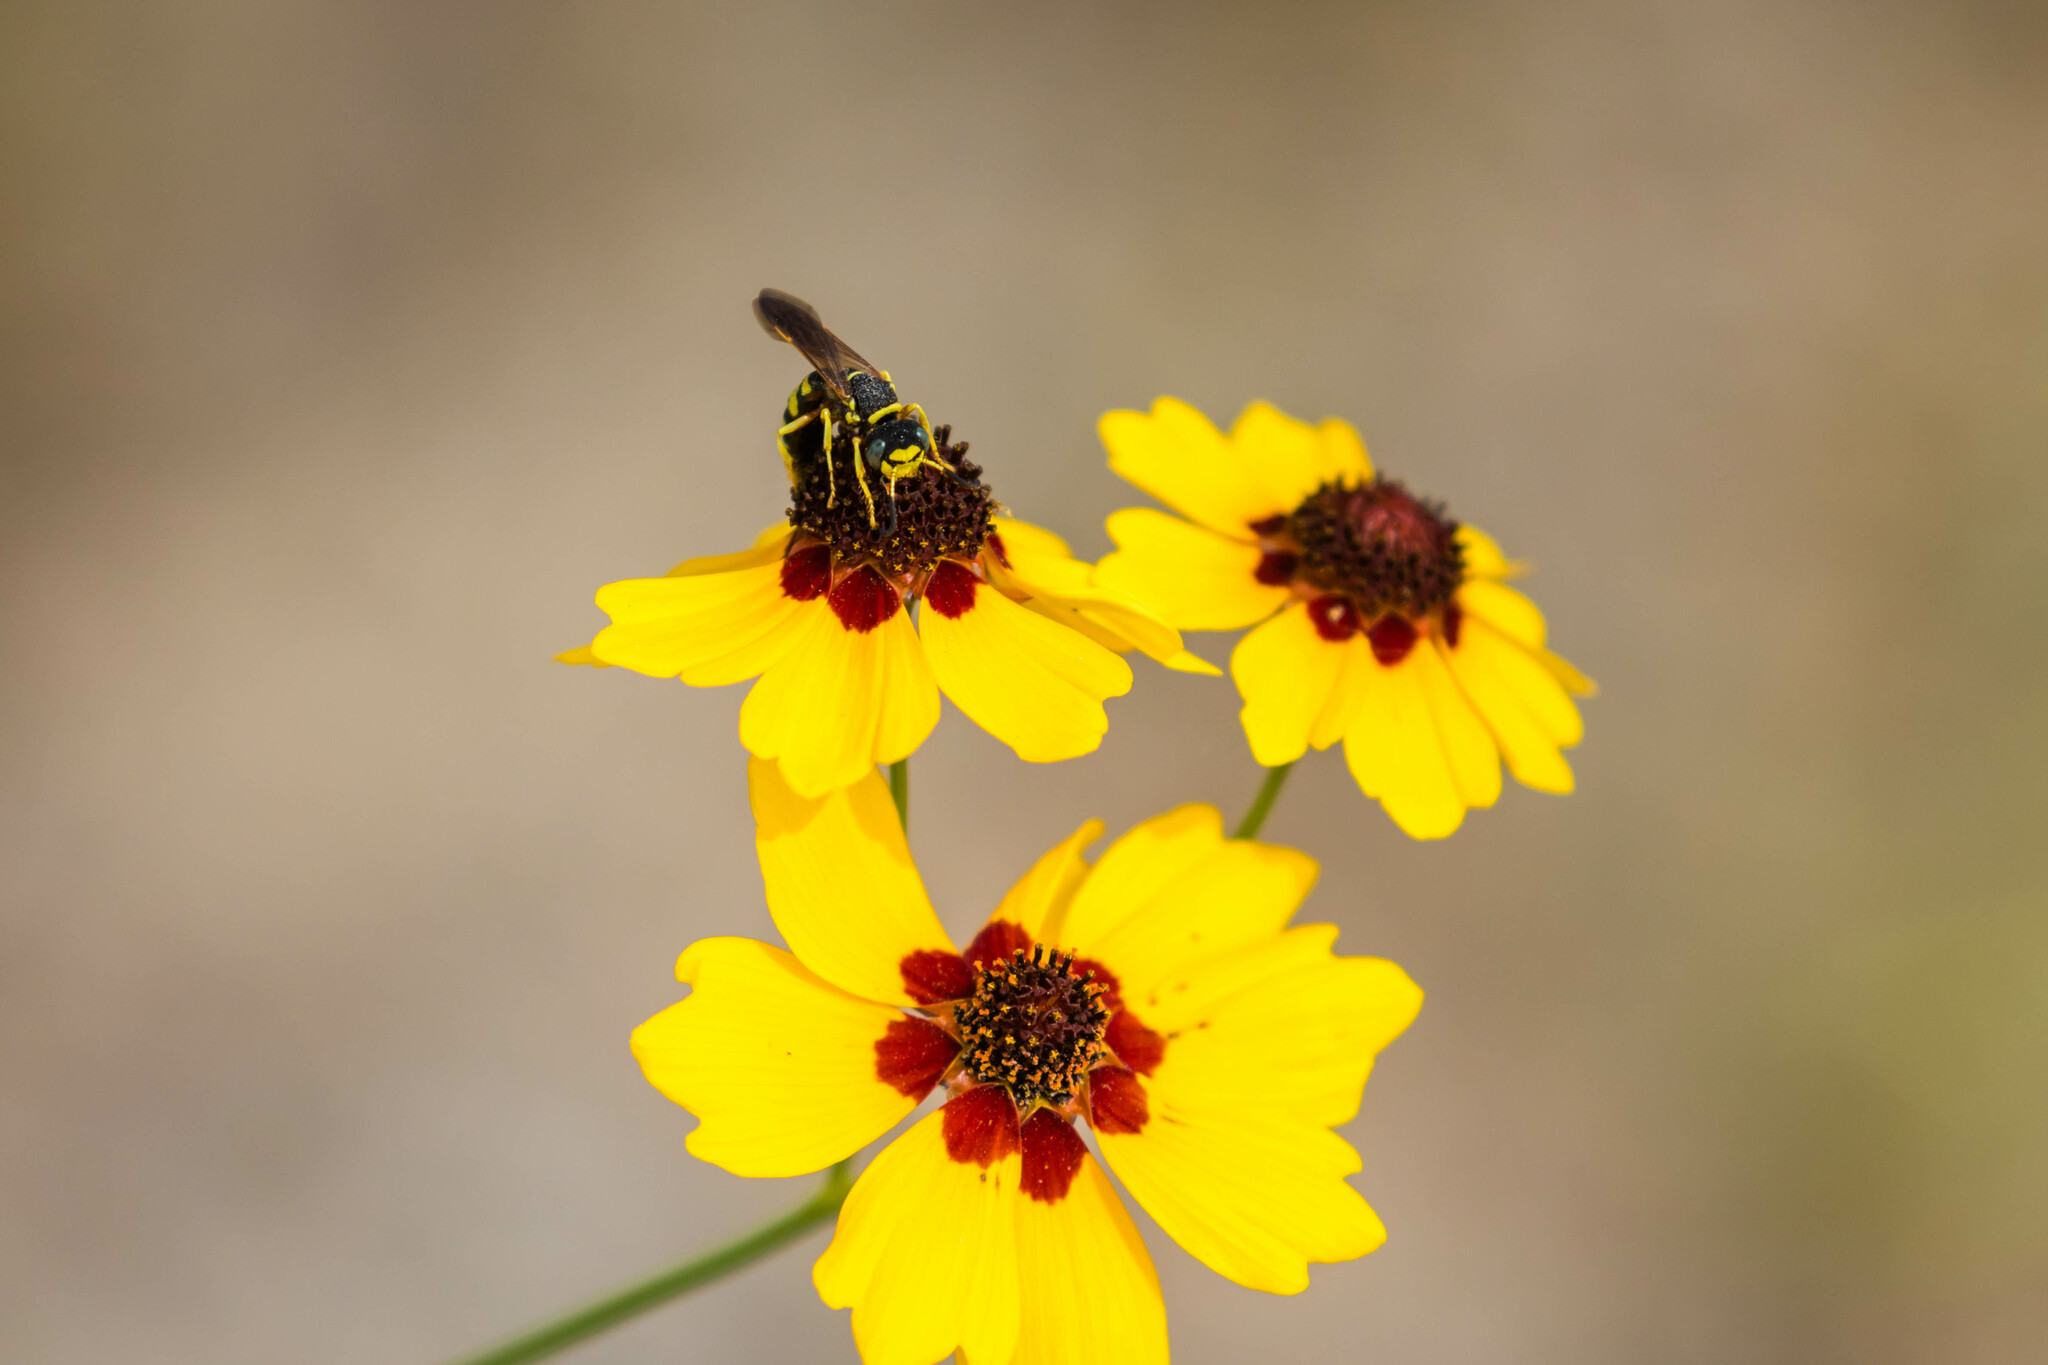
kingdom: Animalia
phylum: Arthropoda
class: Insecta
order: Hymenoptera
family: Crabronidae
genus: Philanthus
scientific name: Philanthus ventilabris
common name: Bee-killer wasp
